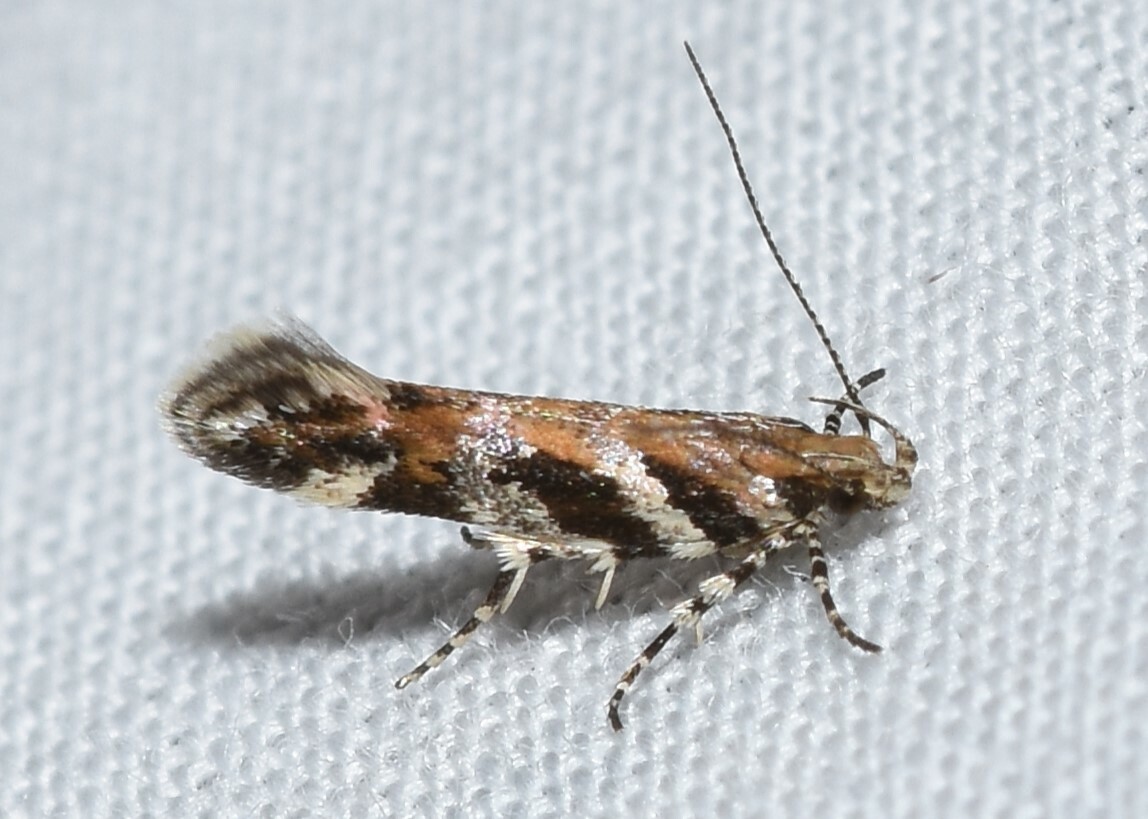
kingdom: Animalia
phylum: Arthropoda
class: Insecta
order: Lepidoptera
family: Gelechiidae
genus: Aristotelia
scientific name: Aristotelia roseosuffusella
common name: Pink-washed aristotelia moth
